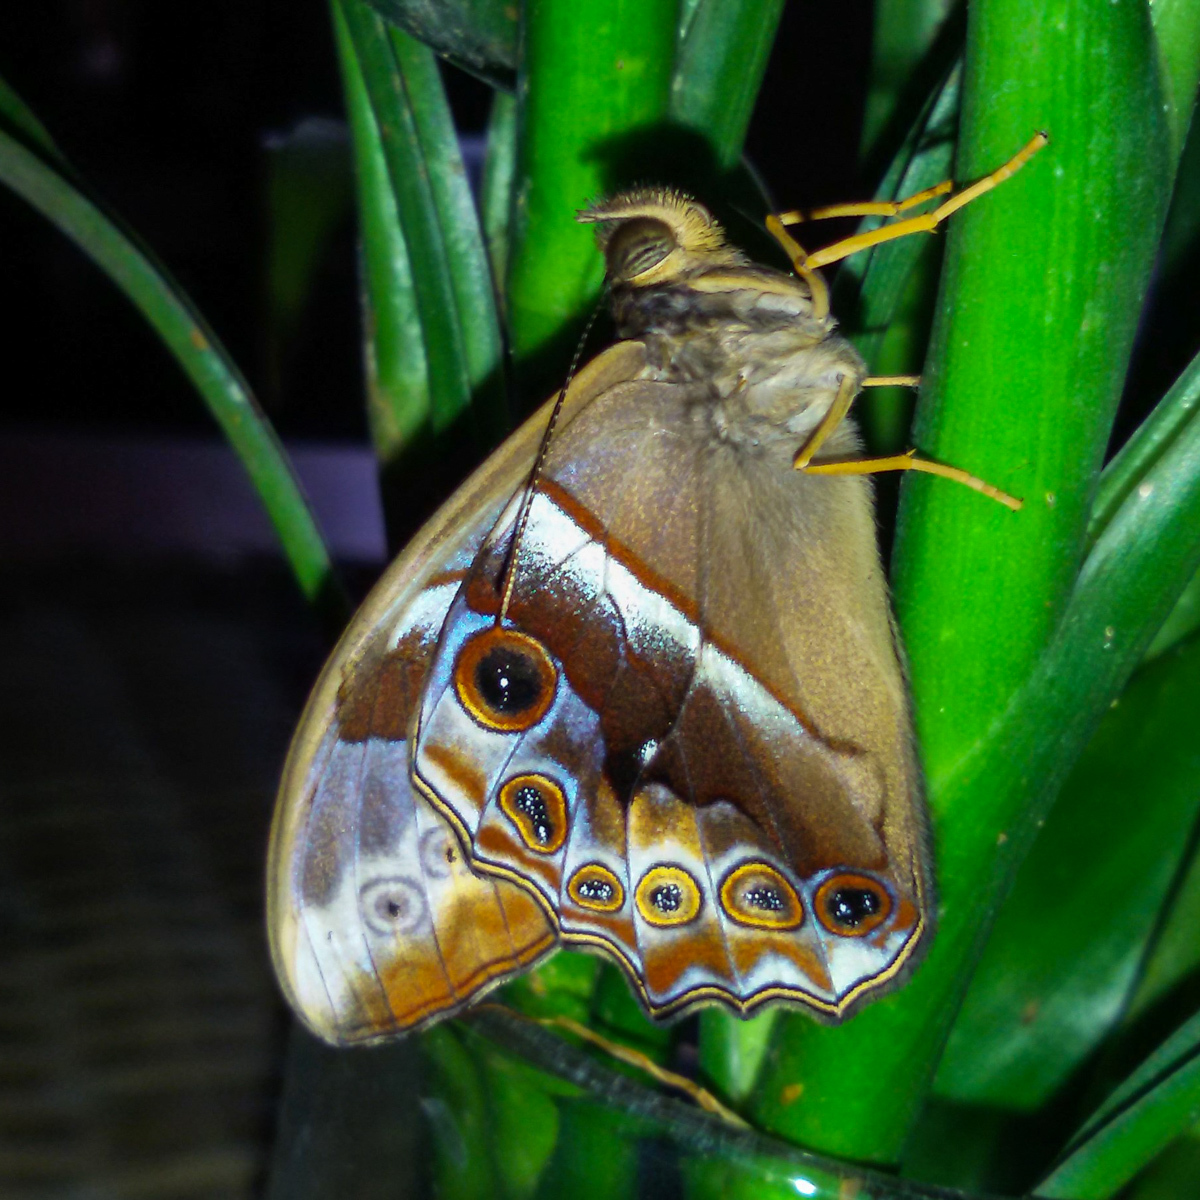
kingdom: Animalia
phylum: Arthropoda
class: Insecta
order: Lepidoptera
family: Nymphalidae
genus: Lethe
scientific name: Lethe mekara
